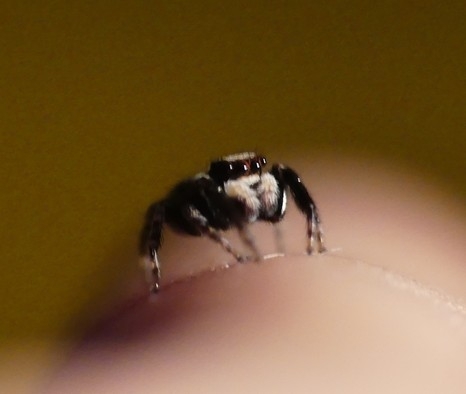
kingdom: Animalia
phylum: Arthropoda
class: Arachnida
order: Araneae
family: Salticidae
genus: Pseudeuophrys
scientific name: Pseudeuophrys lanigera
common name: Jumping spider
